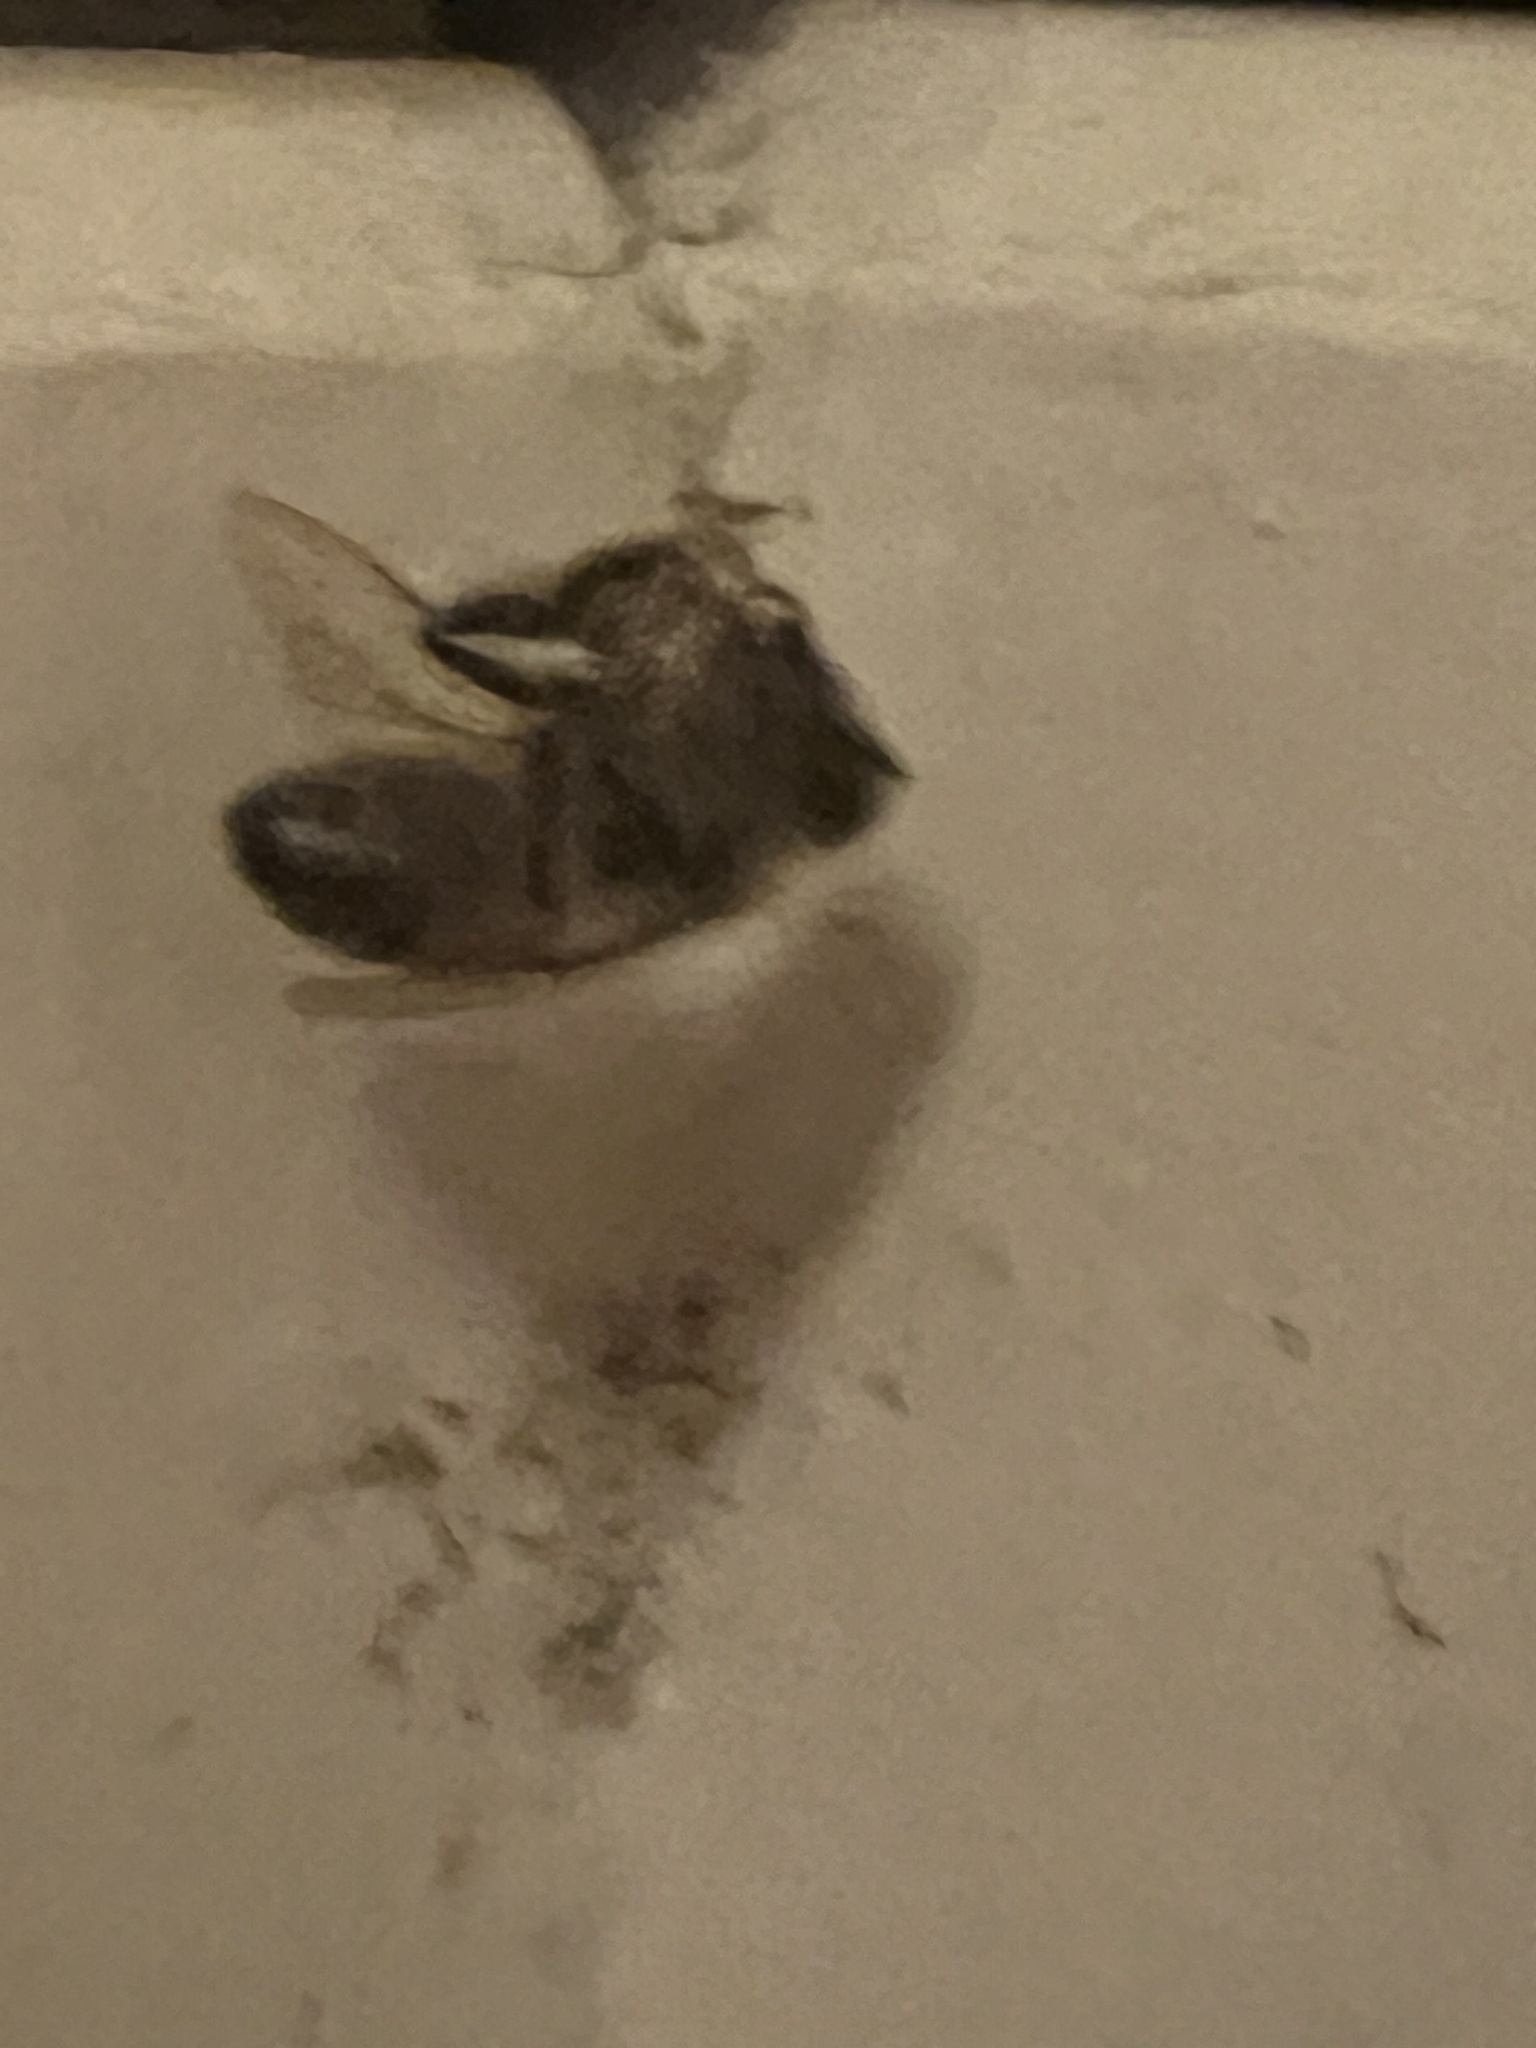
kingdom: Animalia
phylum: Arthropoda
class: Insecta
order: Hymenoptera
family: Apidae
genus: Apis
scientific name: Apis mellifera
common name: Honey bee
